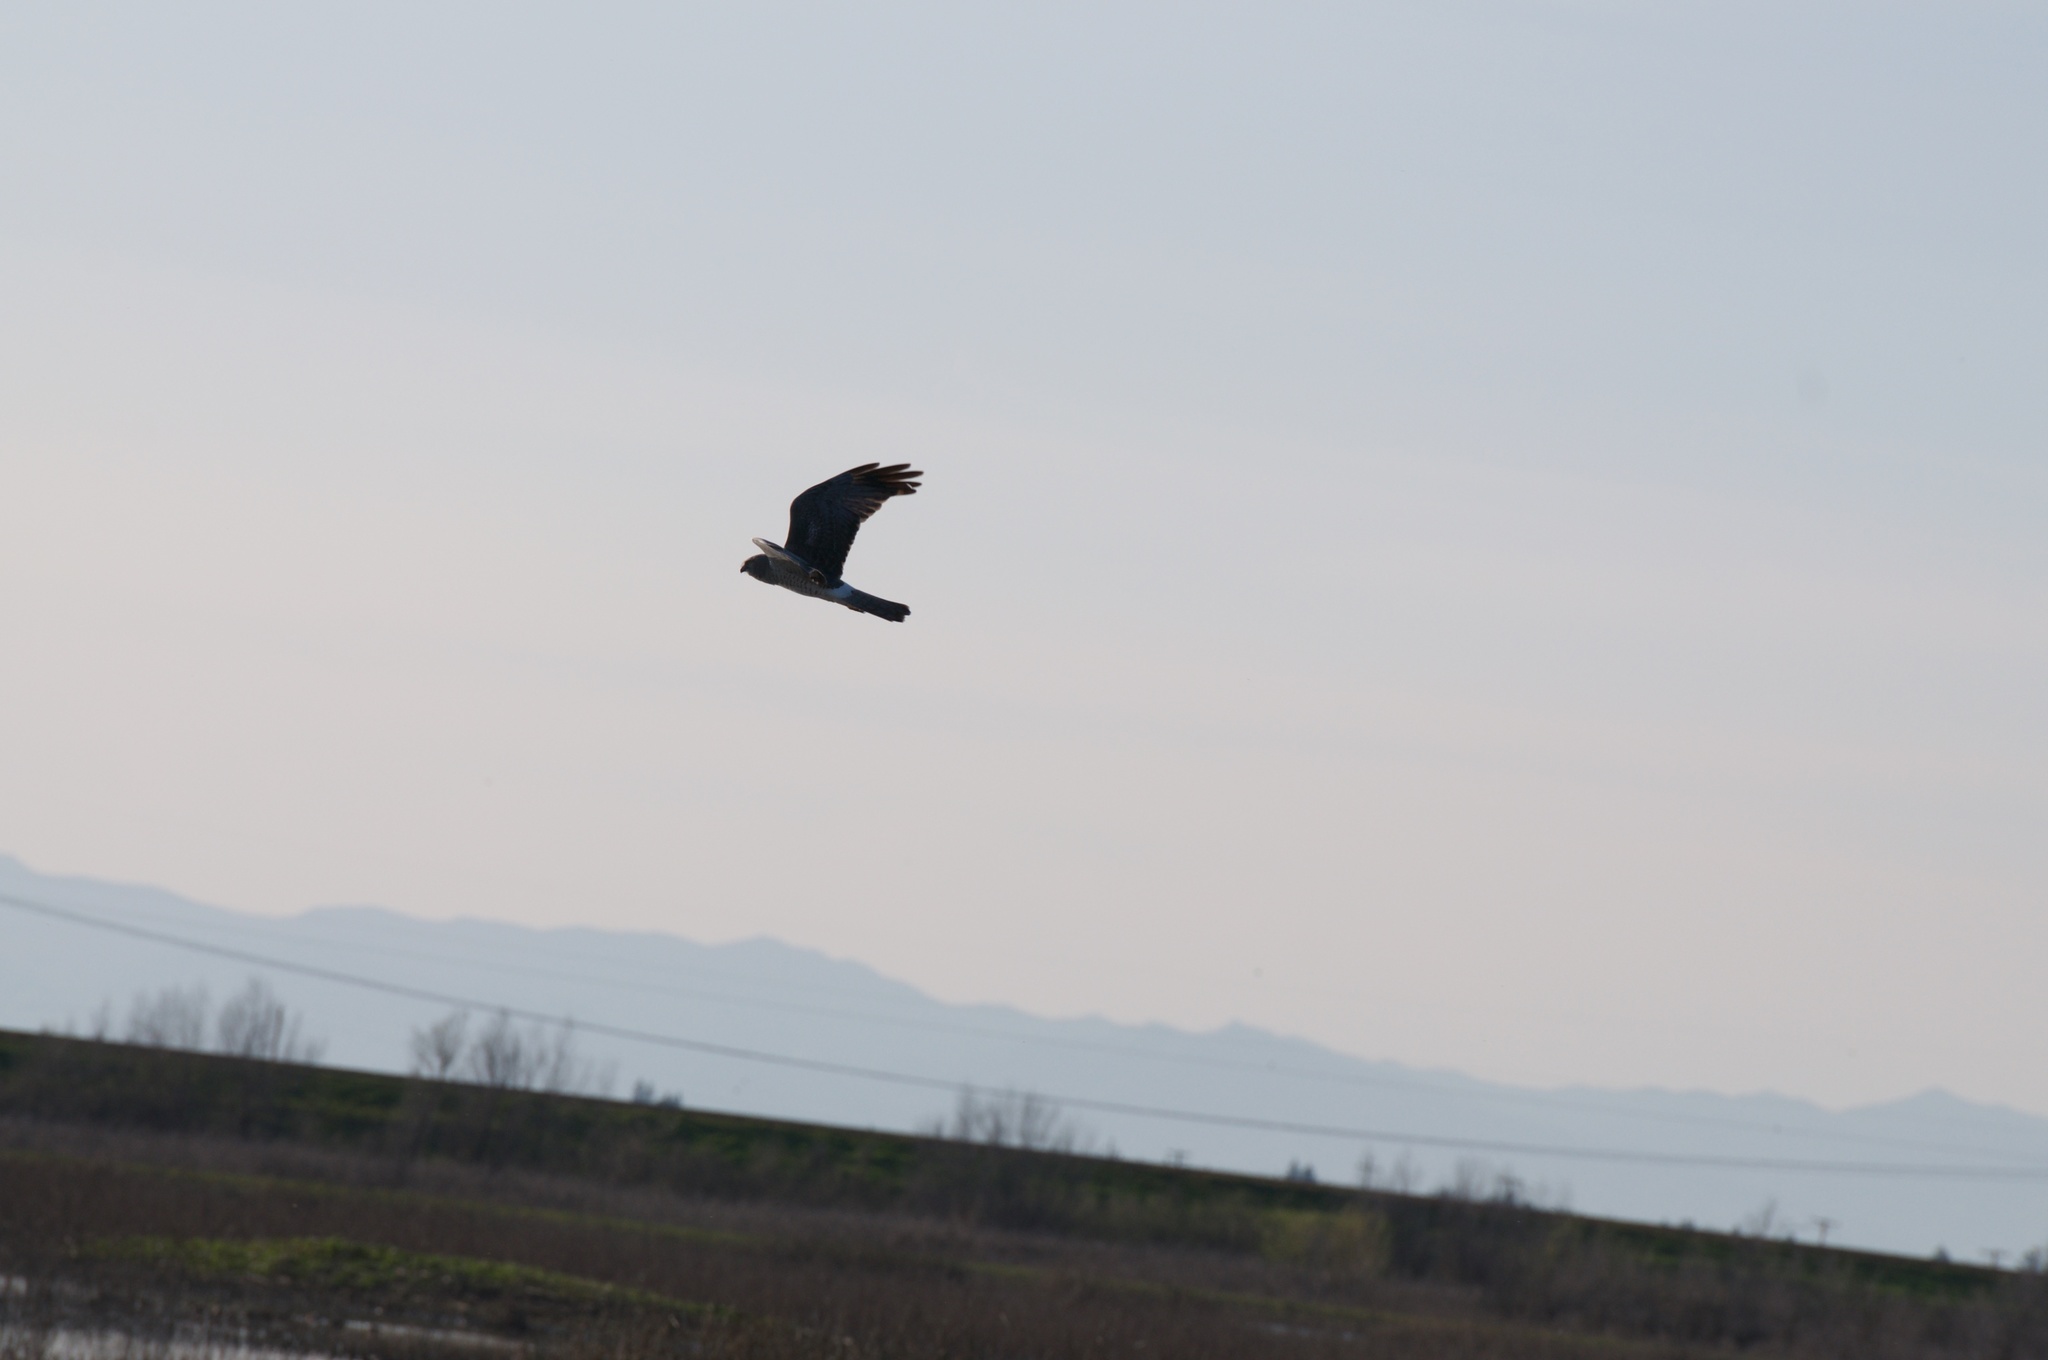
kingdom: Animalia
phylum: Chordata
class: Aves
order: Accipitriformes
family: Accipitridae
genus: Circus
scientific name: Circus cyaneus
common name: Hen harrier
